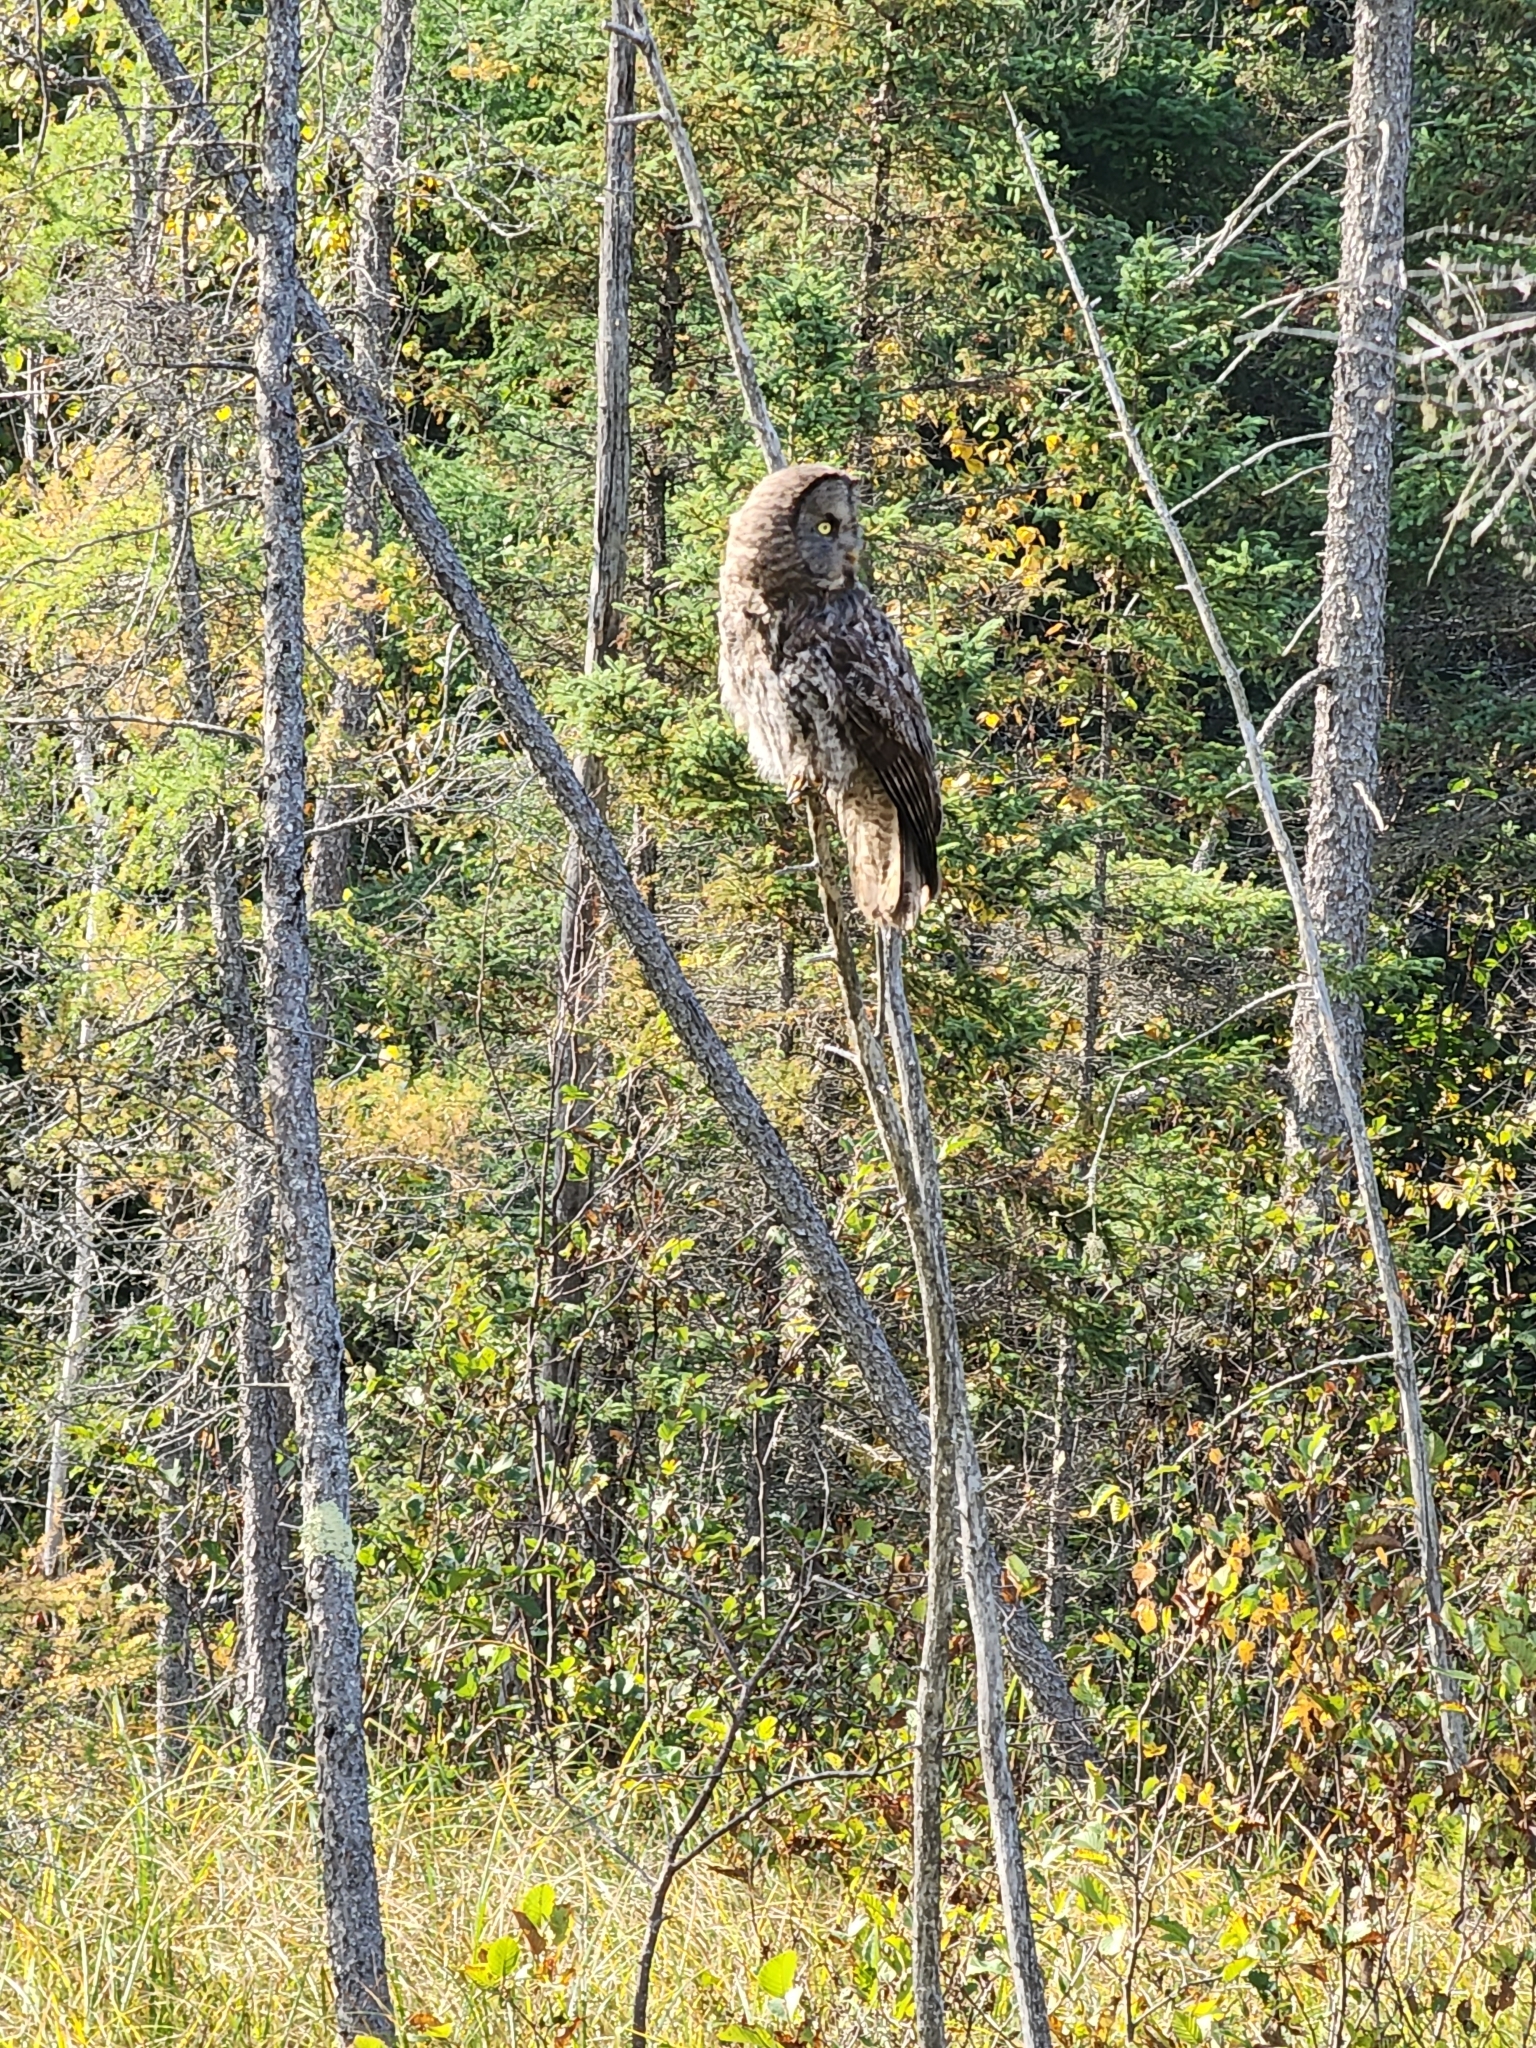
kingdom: Animalia
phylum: Chordata
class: Aves
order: Strigiformes
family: Strigidae
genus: Strix
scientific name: Strix nebulosa
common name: Great grey owl
